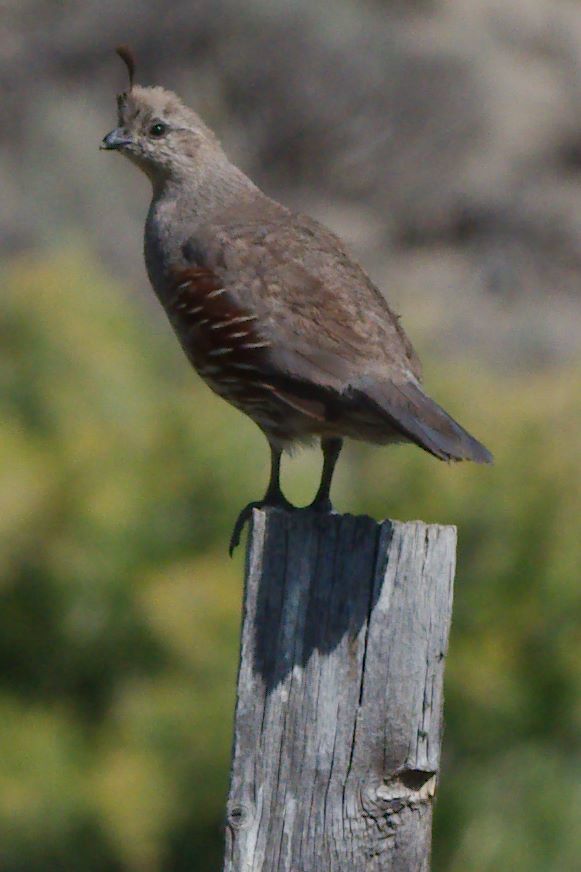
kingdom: Animalia
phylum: Chordata
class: Aves
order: Galliformes
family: Odontophoridae
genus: Callipepla
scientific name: Callipepla gambelii
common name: Gambel's quail
